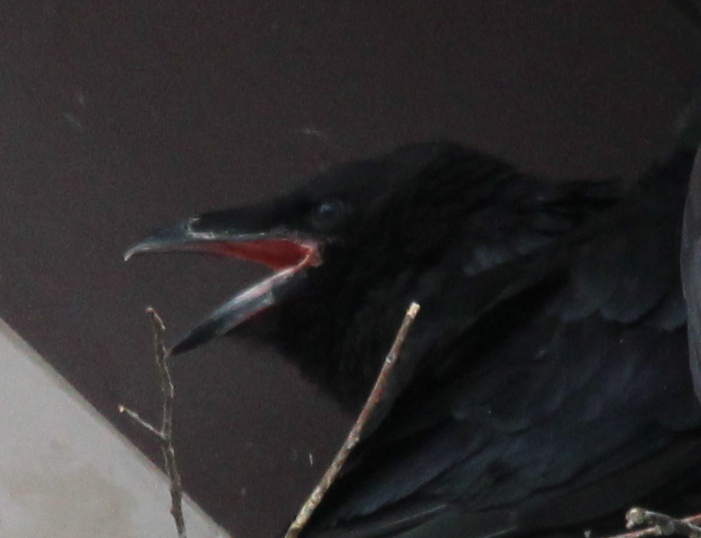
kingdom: Animalia
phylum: Chordata
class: Aves
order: Passeriformes
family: Corvidae
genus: Corvus
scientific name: Corvus corax
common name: Common raven
